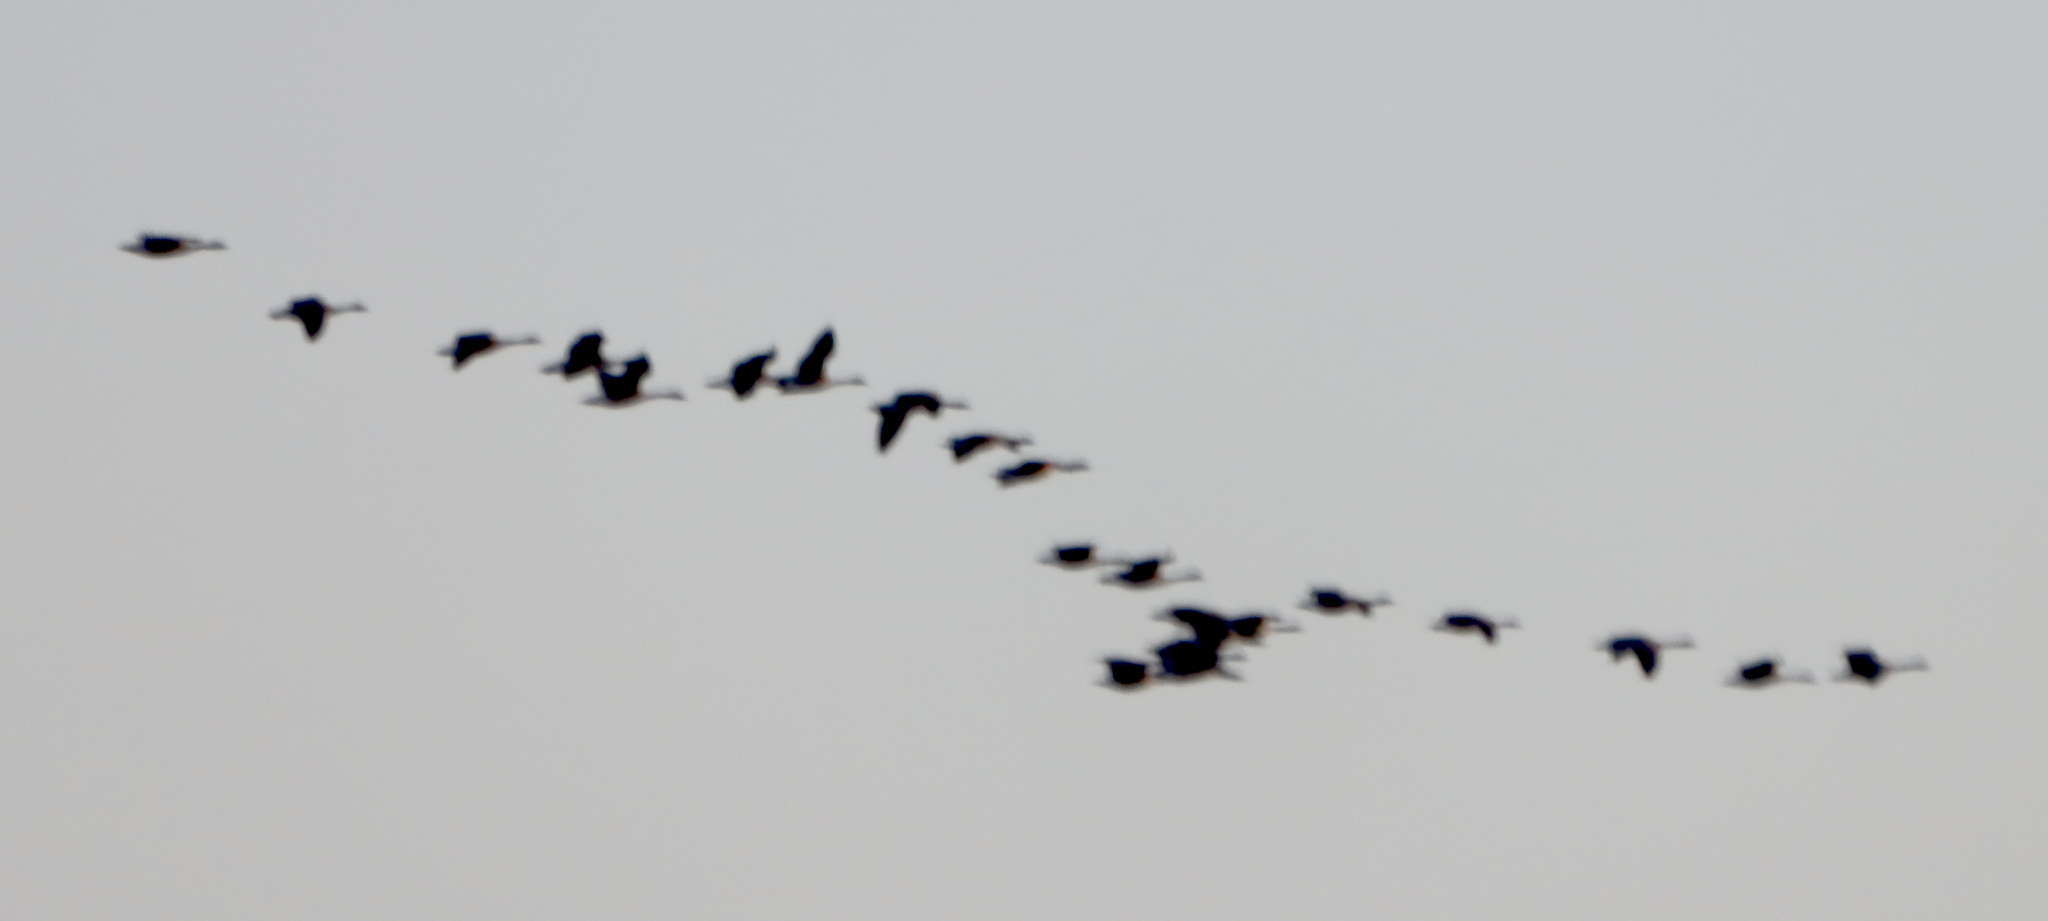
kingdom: Animalia
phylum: Chordata
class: Aves
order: Anseriformes
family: Anatidae
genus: Branta
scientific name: Branta canadensis
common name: Canada goose
